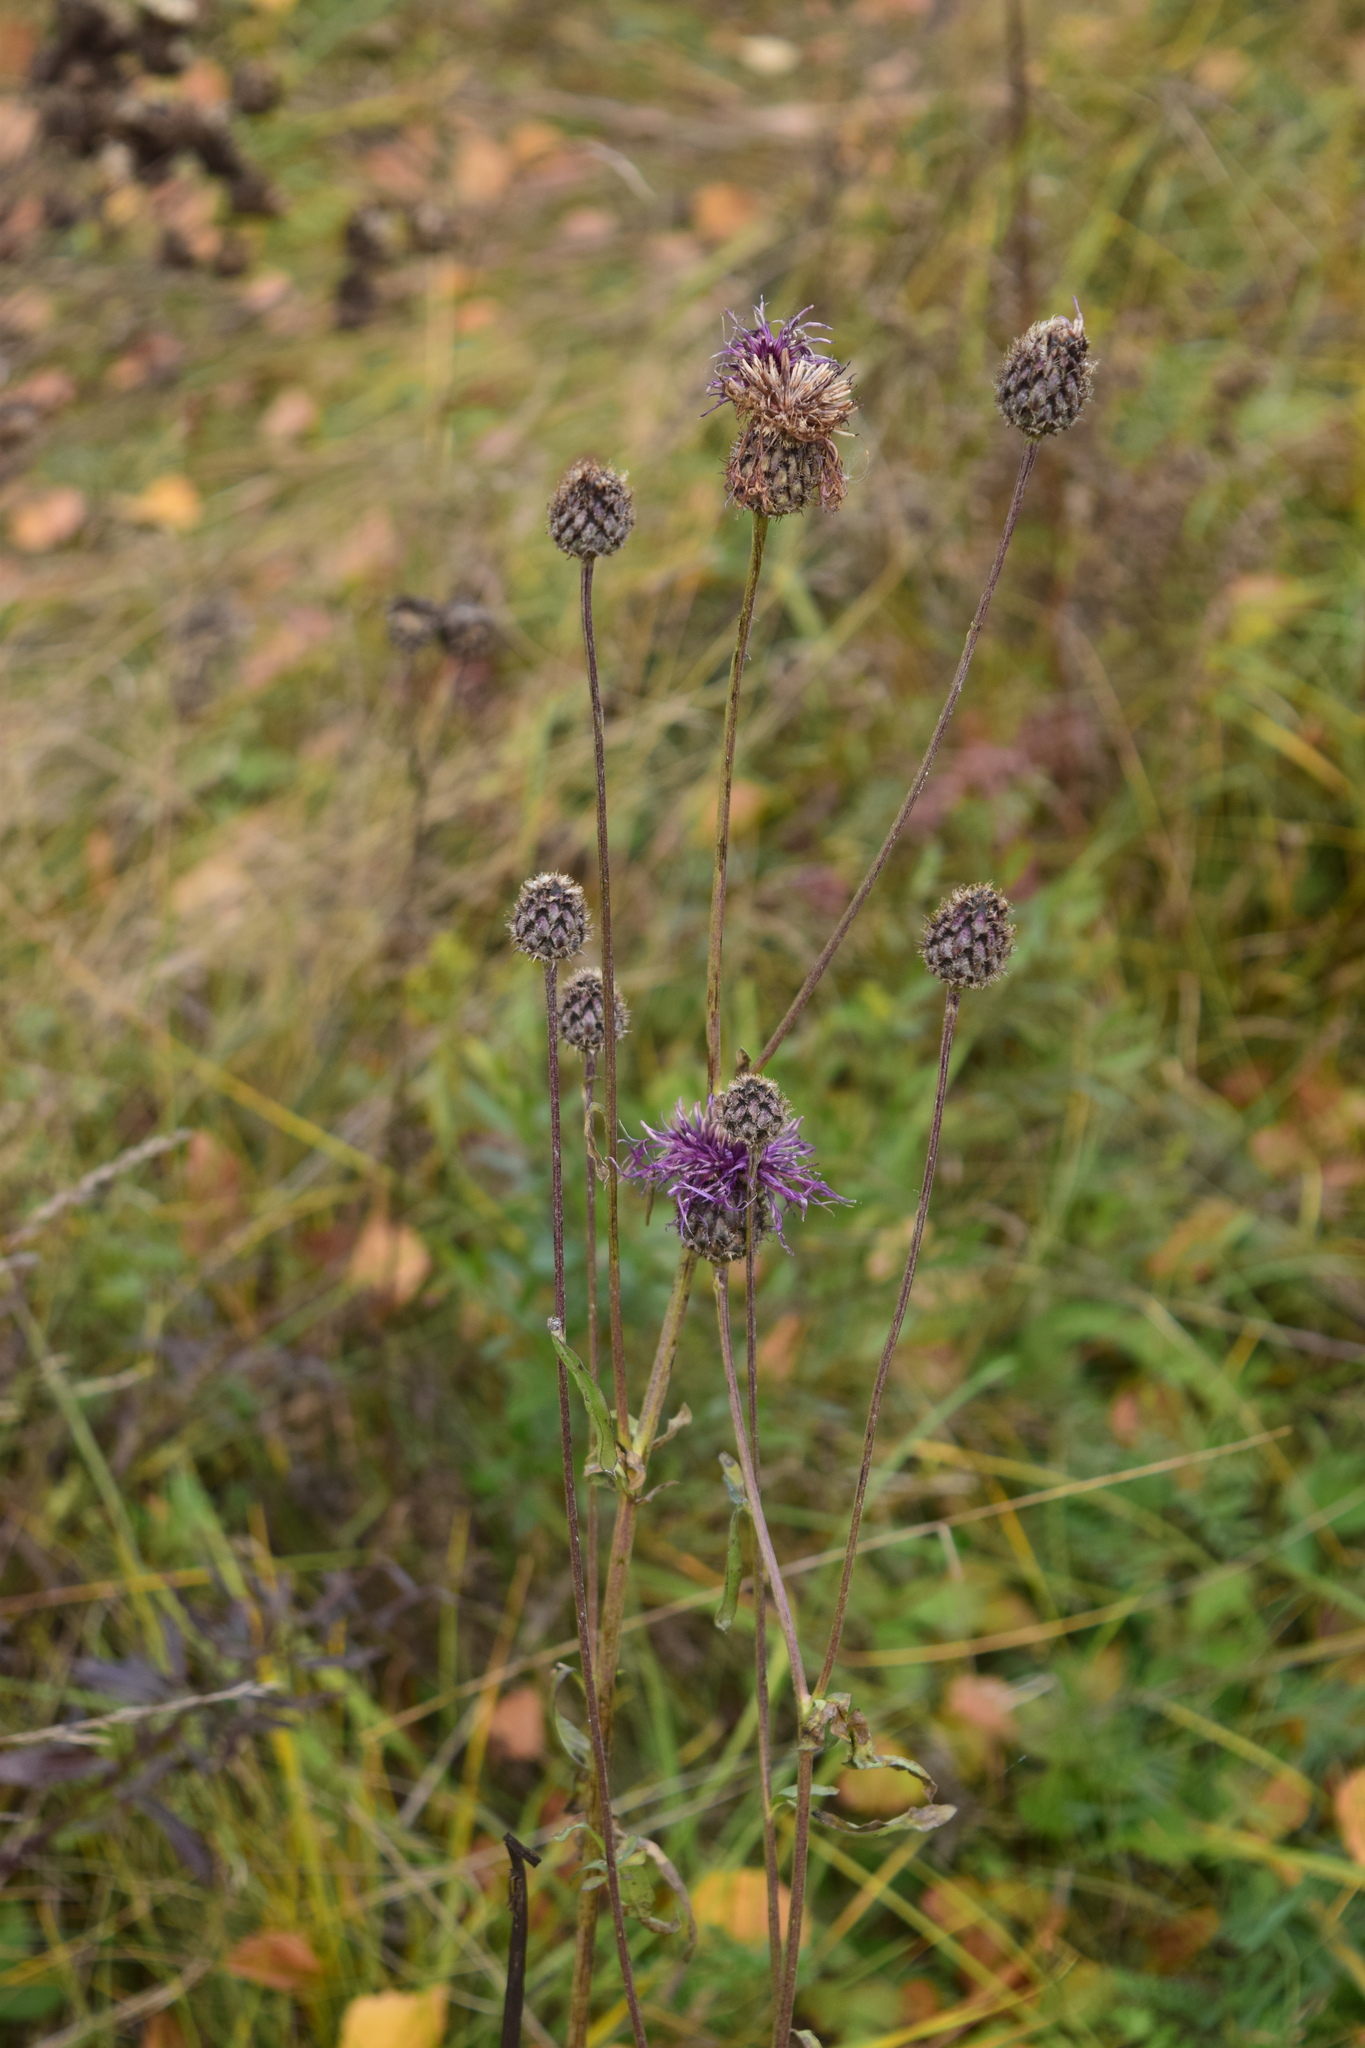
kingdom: Plantae
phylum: Tracheophyta
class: Magnoliopsida
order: Asterales
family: Asteraceae
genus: Centaurea
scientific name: Centaurea scabiosa
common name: Greater knapweed
